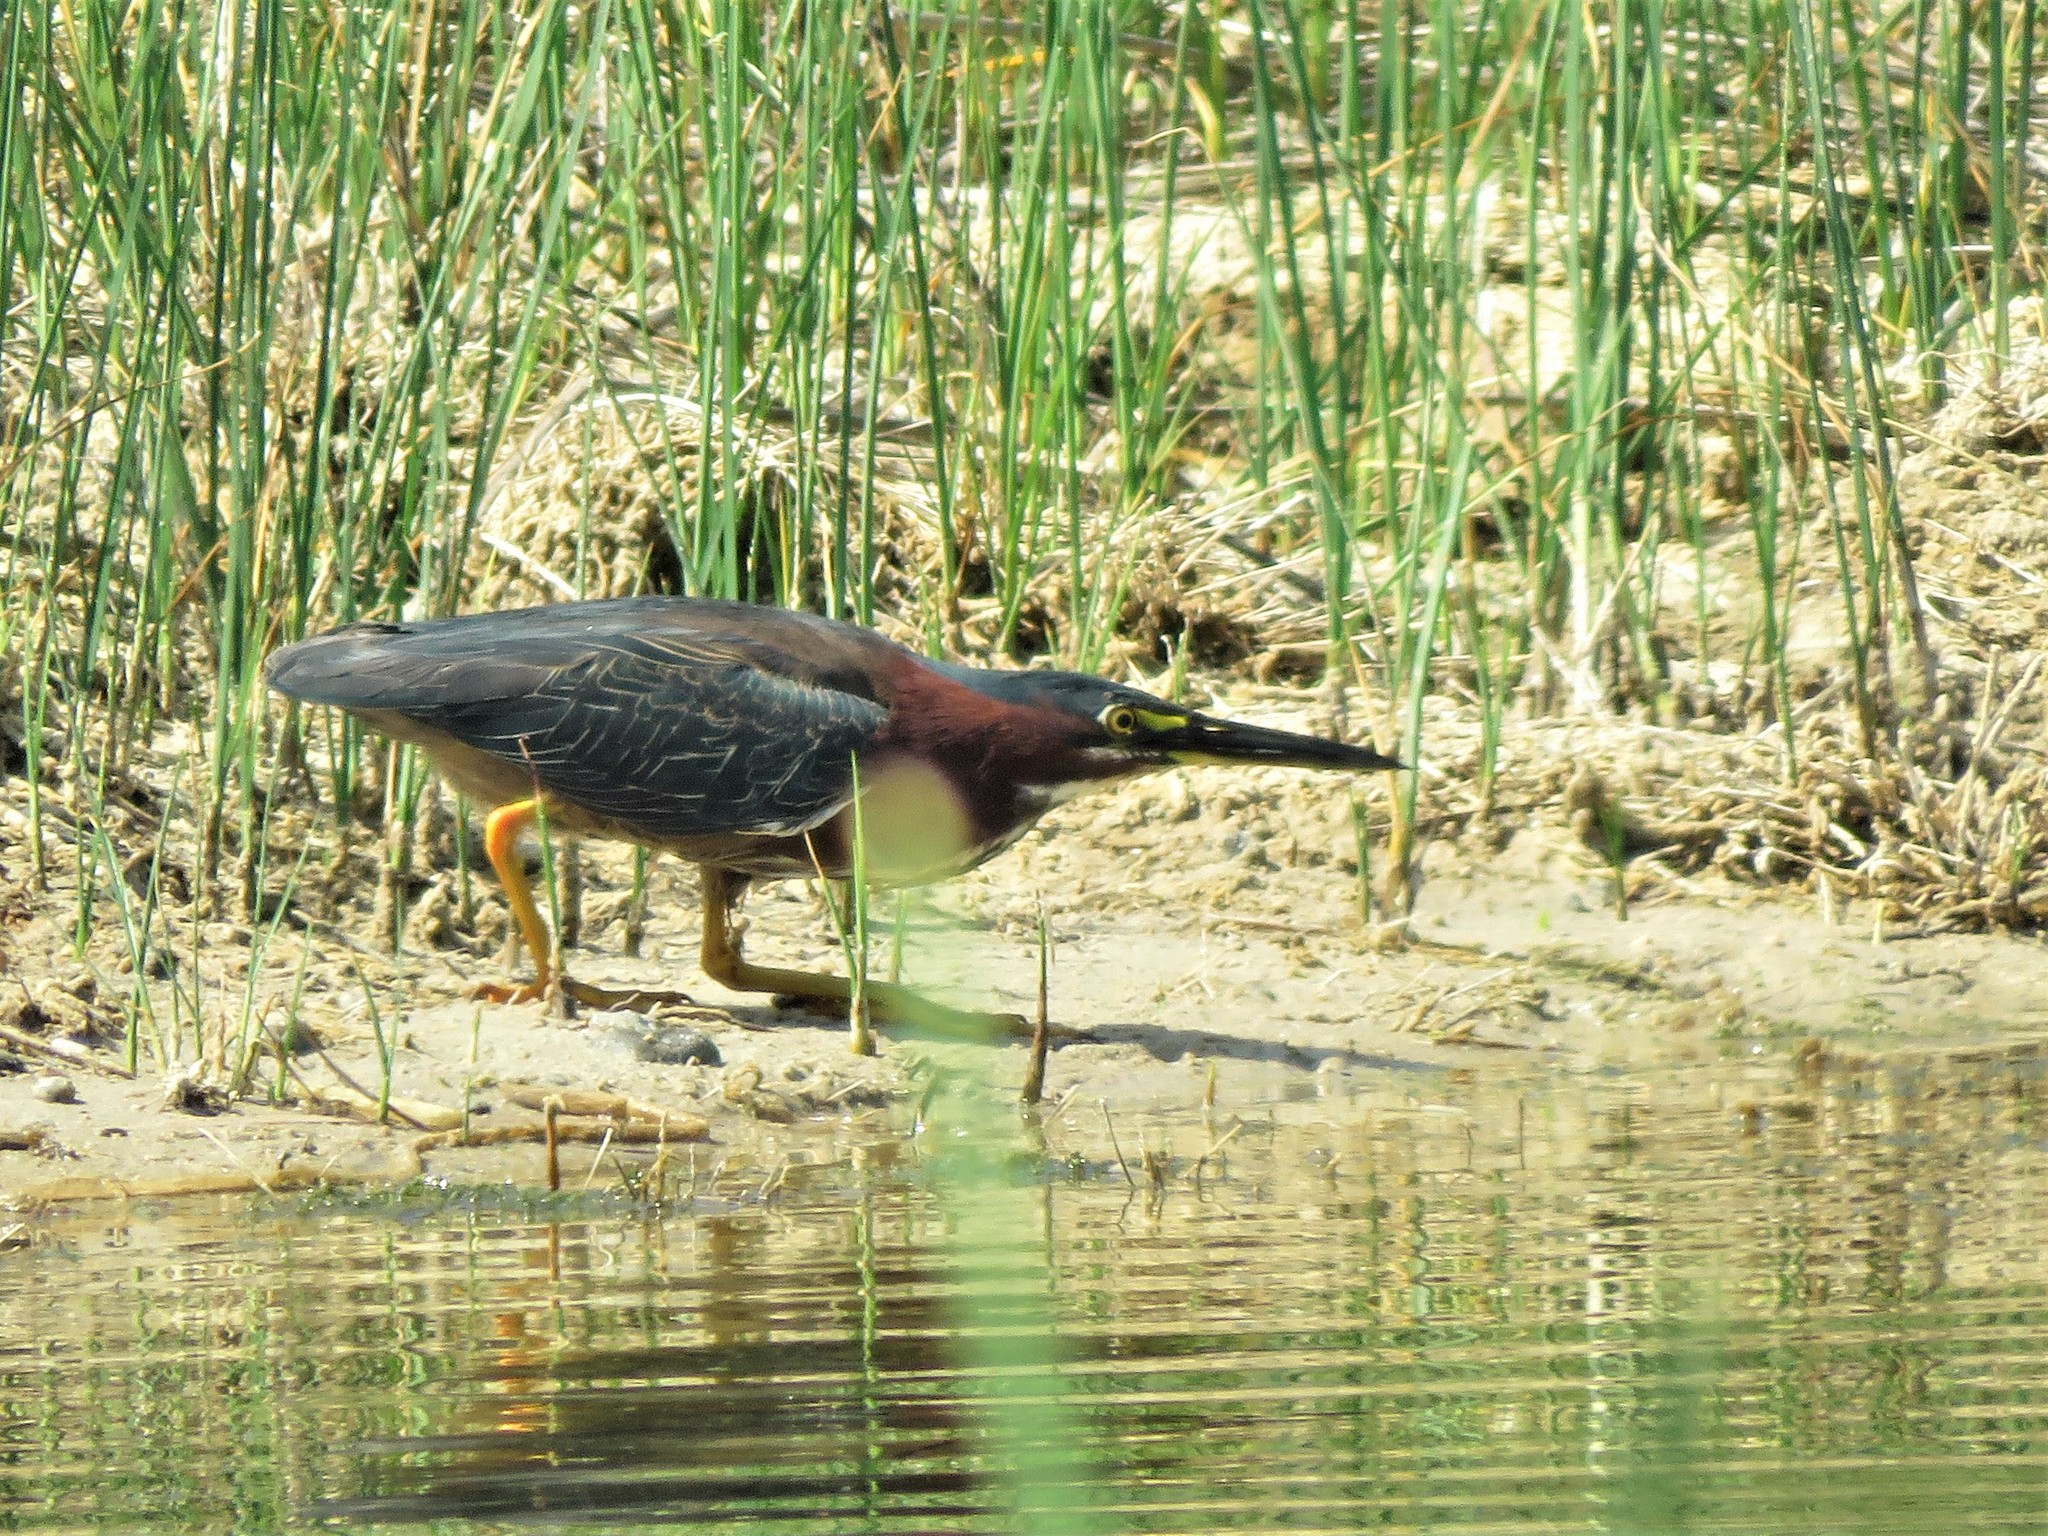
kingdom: Animalia
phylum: Chordata
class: Aves
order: Pelecaniformes
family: Ardeidae
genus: Butorides
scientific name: Butorides virescens
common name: Green heron
